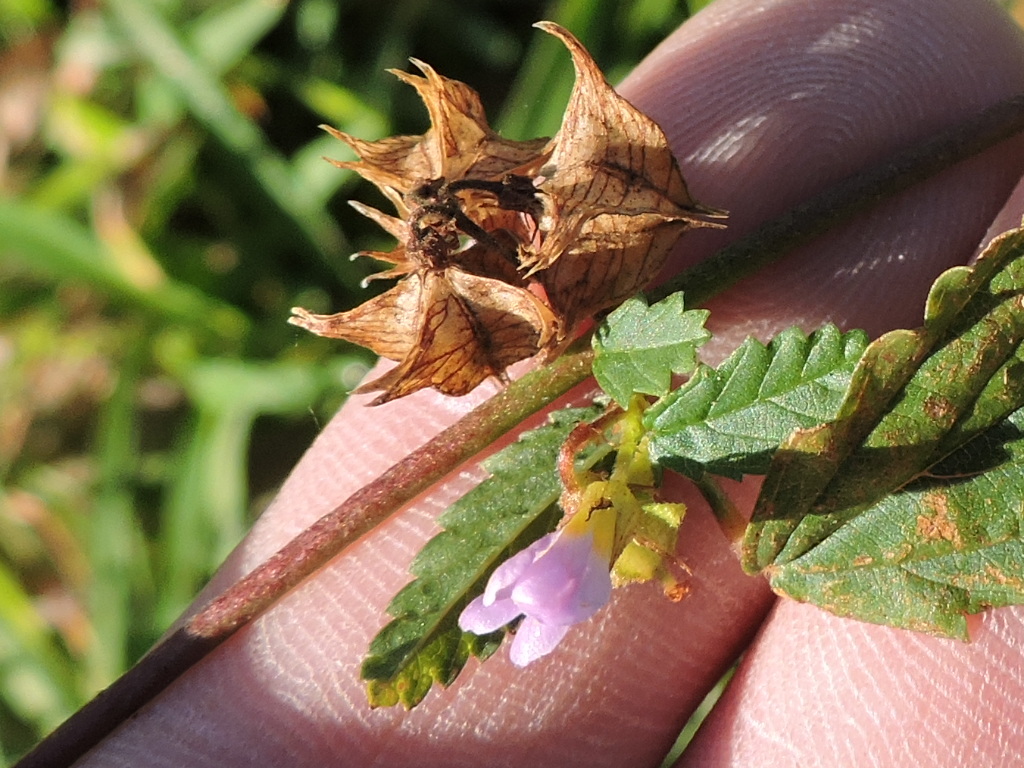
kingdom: Plantae
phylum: Tracheophyta
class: Magnoliopsida
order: Malvales
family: Malvaceae
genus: Melochia
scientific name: Melochia pyramidata
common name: Pyramidflower
